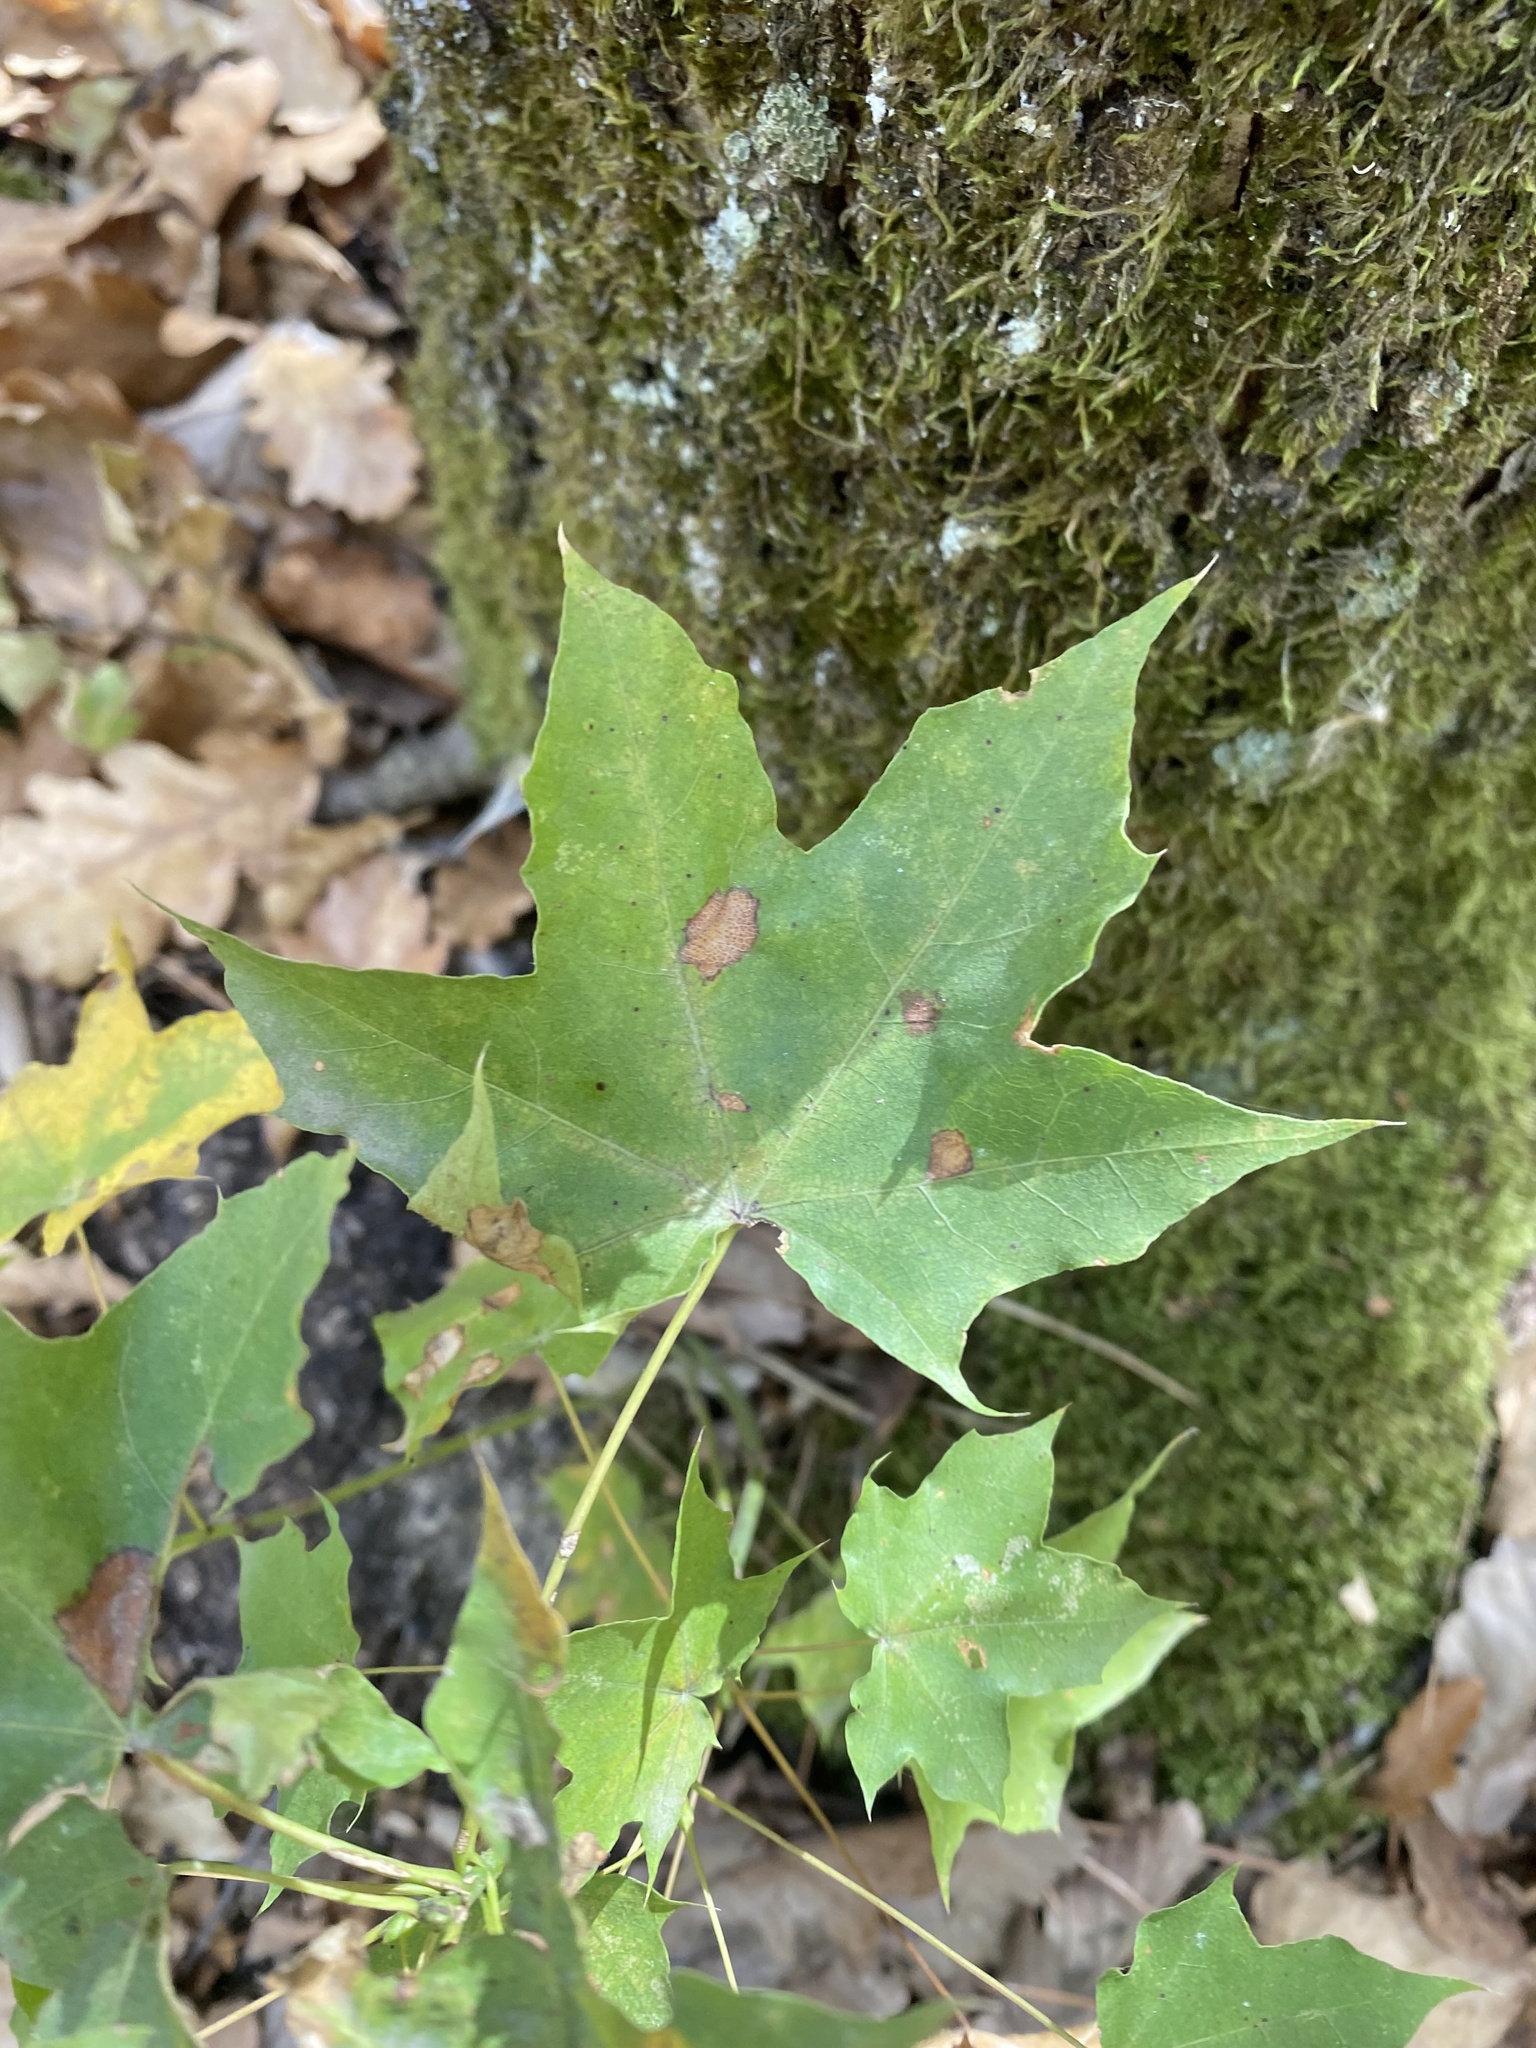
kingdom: Plantae
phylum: Tracheophyta
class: Magnoliopsida
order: Sapindales
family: Sapindaceae
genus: Acer
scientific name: Acer cappadocicum
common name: Cappadocian maple
